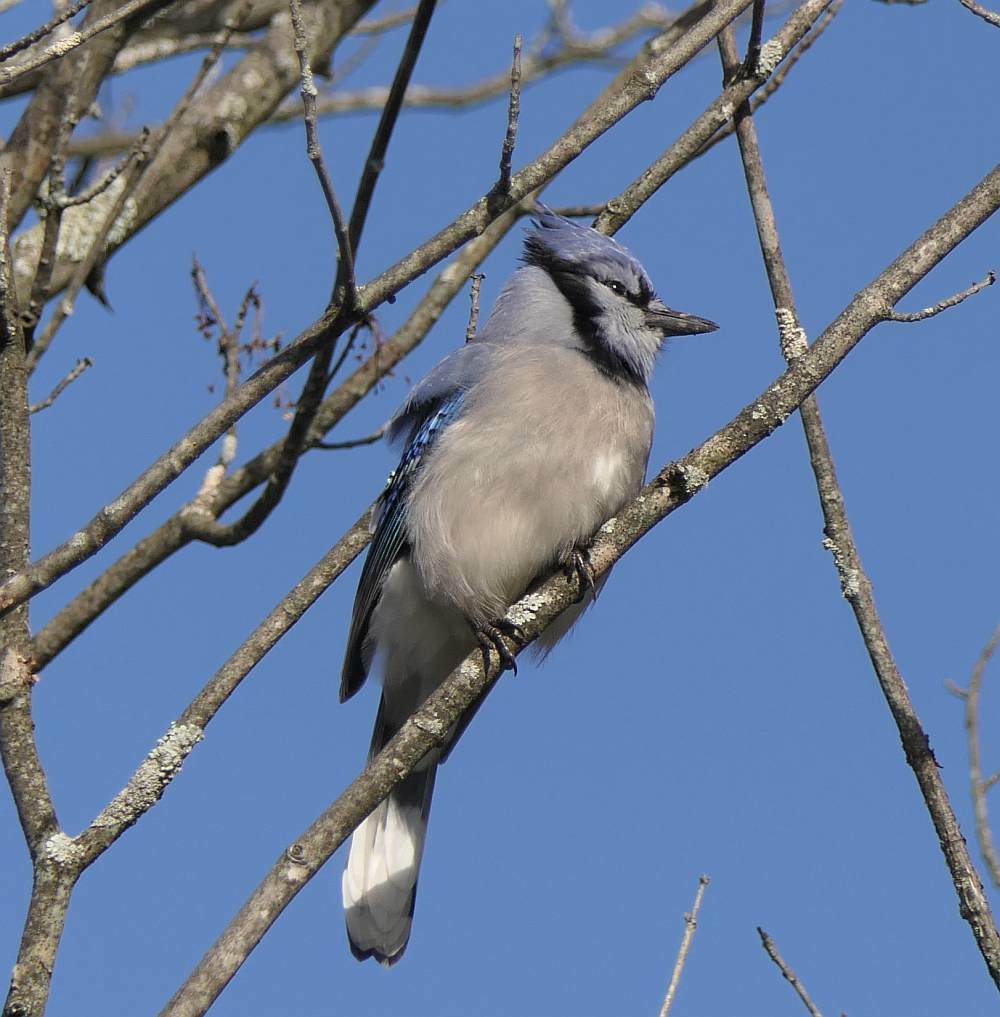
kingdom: Animalia
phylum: Chordata
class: Aves
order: Passeriformes
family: Corvidae
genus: Cyanocitta
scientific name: Cyanocitta cristata
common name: Blue jay
